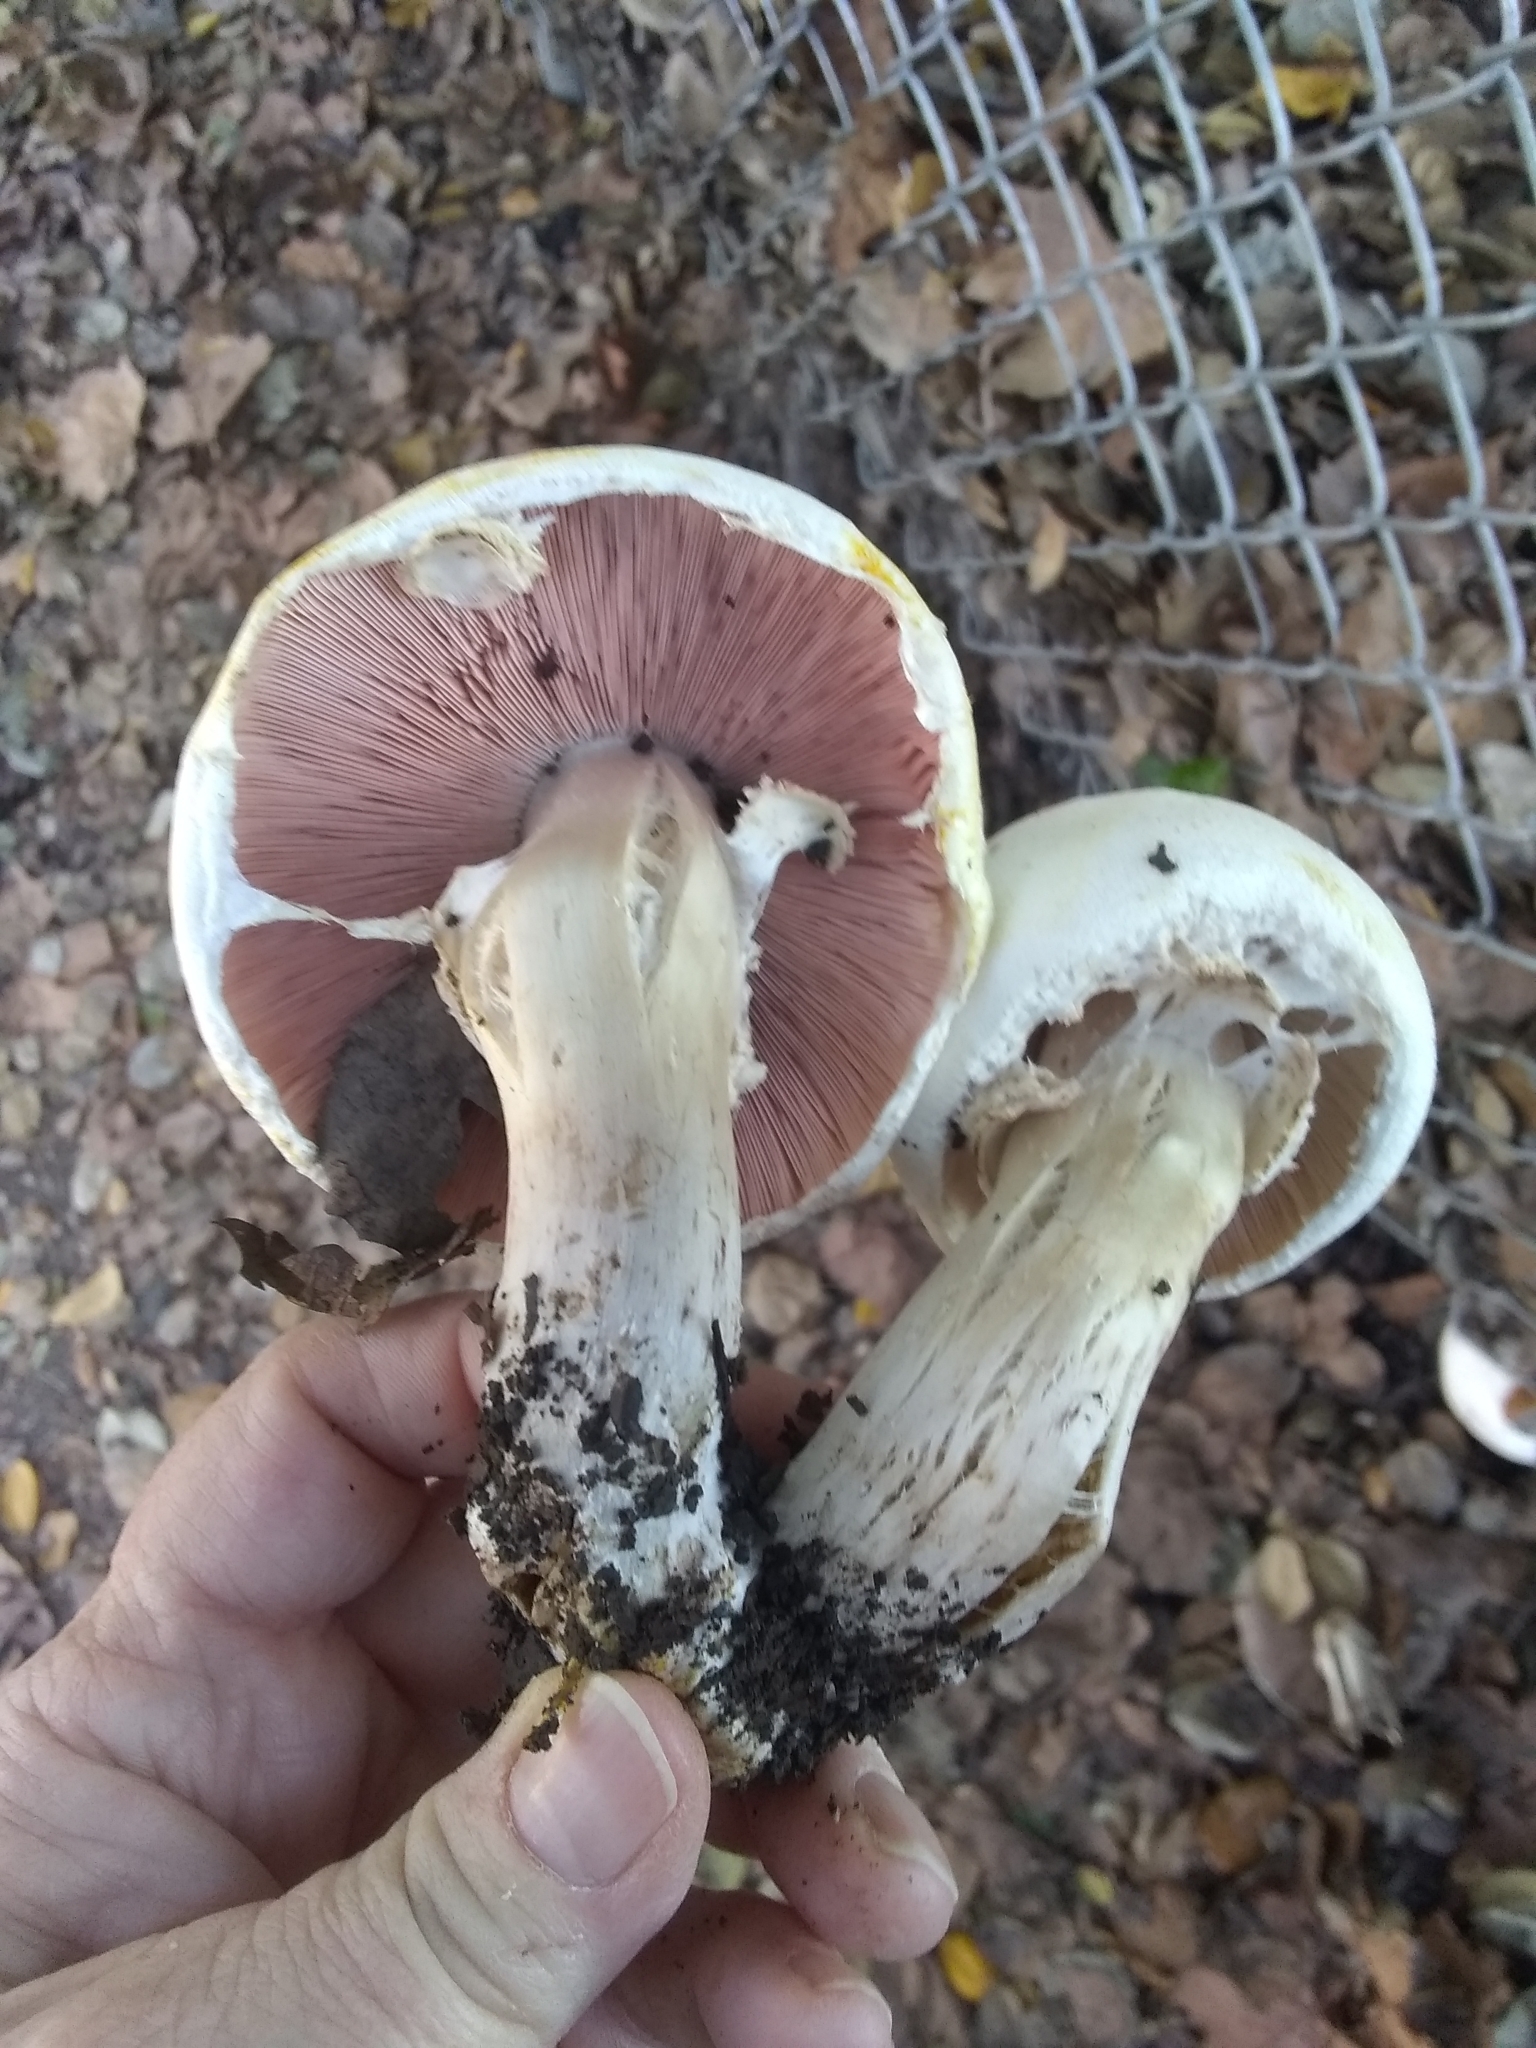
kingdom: Fungi
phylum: Basidiomycota
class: Agaricomycetes
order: Agaricales
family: Agaricaceae
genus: Agaricus
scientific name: Agaricus xanthodermus
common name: Yellow stainer
